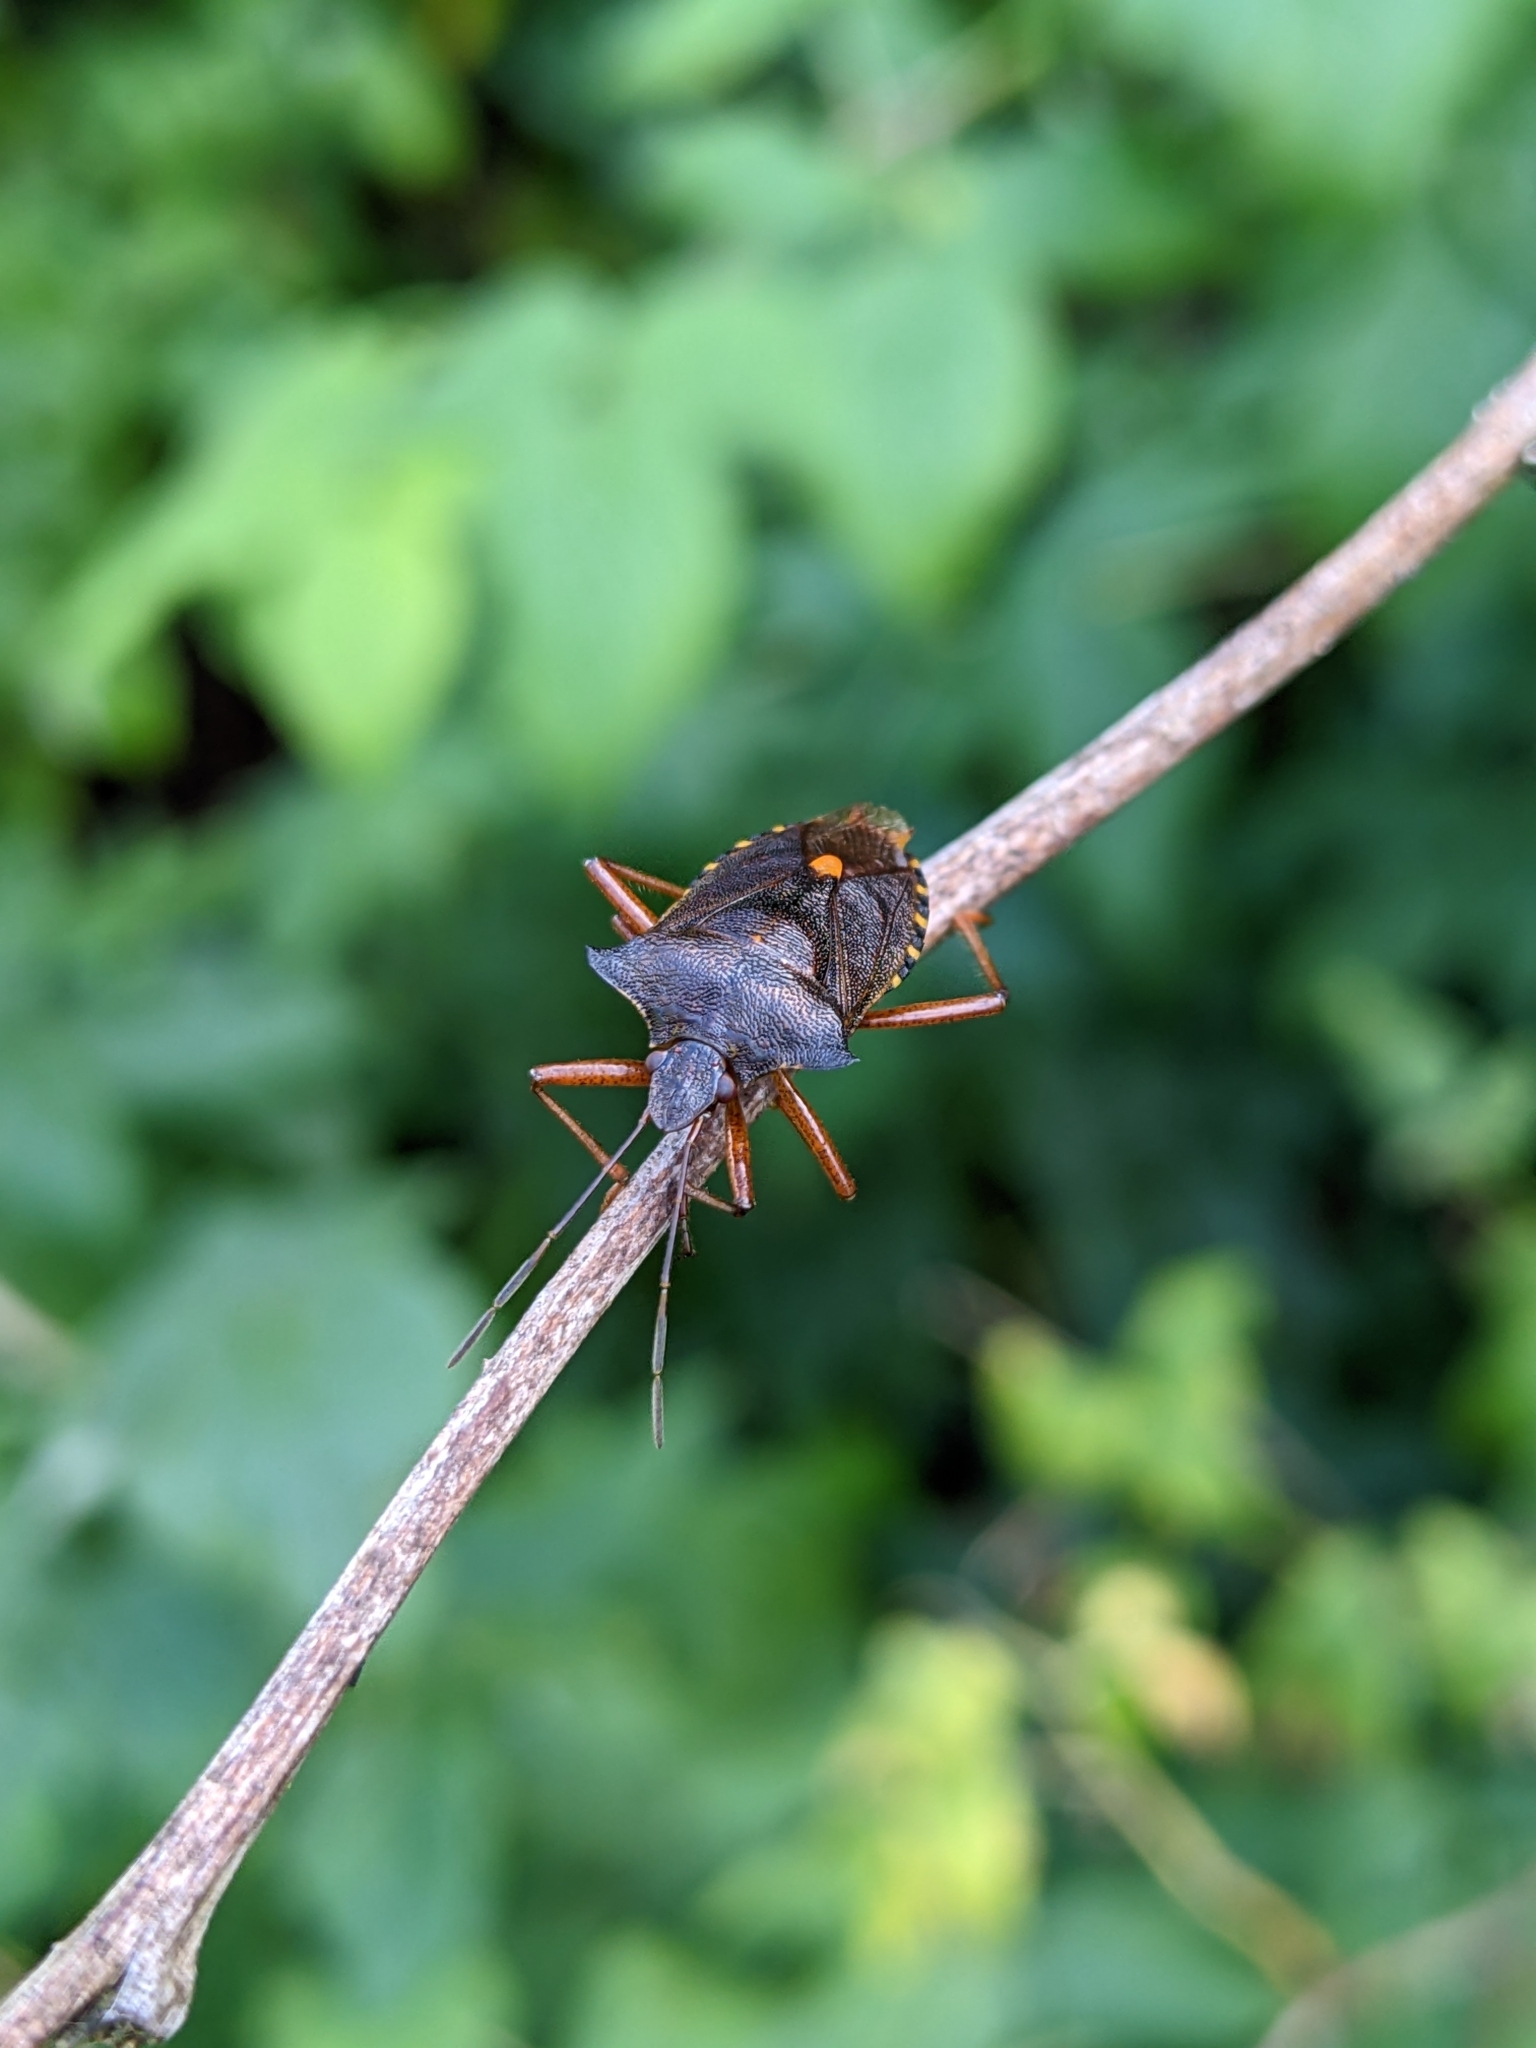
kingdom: Animalia
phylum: Arthropoda
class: Insecta
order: Hemiptera
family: Pentatomidae
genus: Pentatoma
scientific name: Pentatoma rufipes
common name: Forest bug
